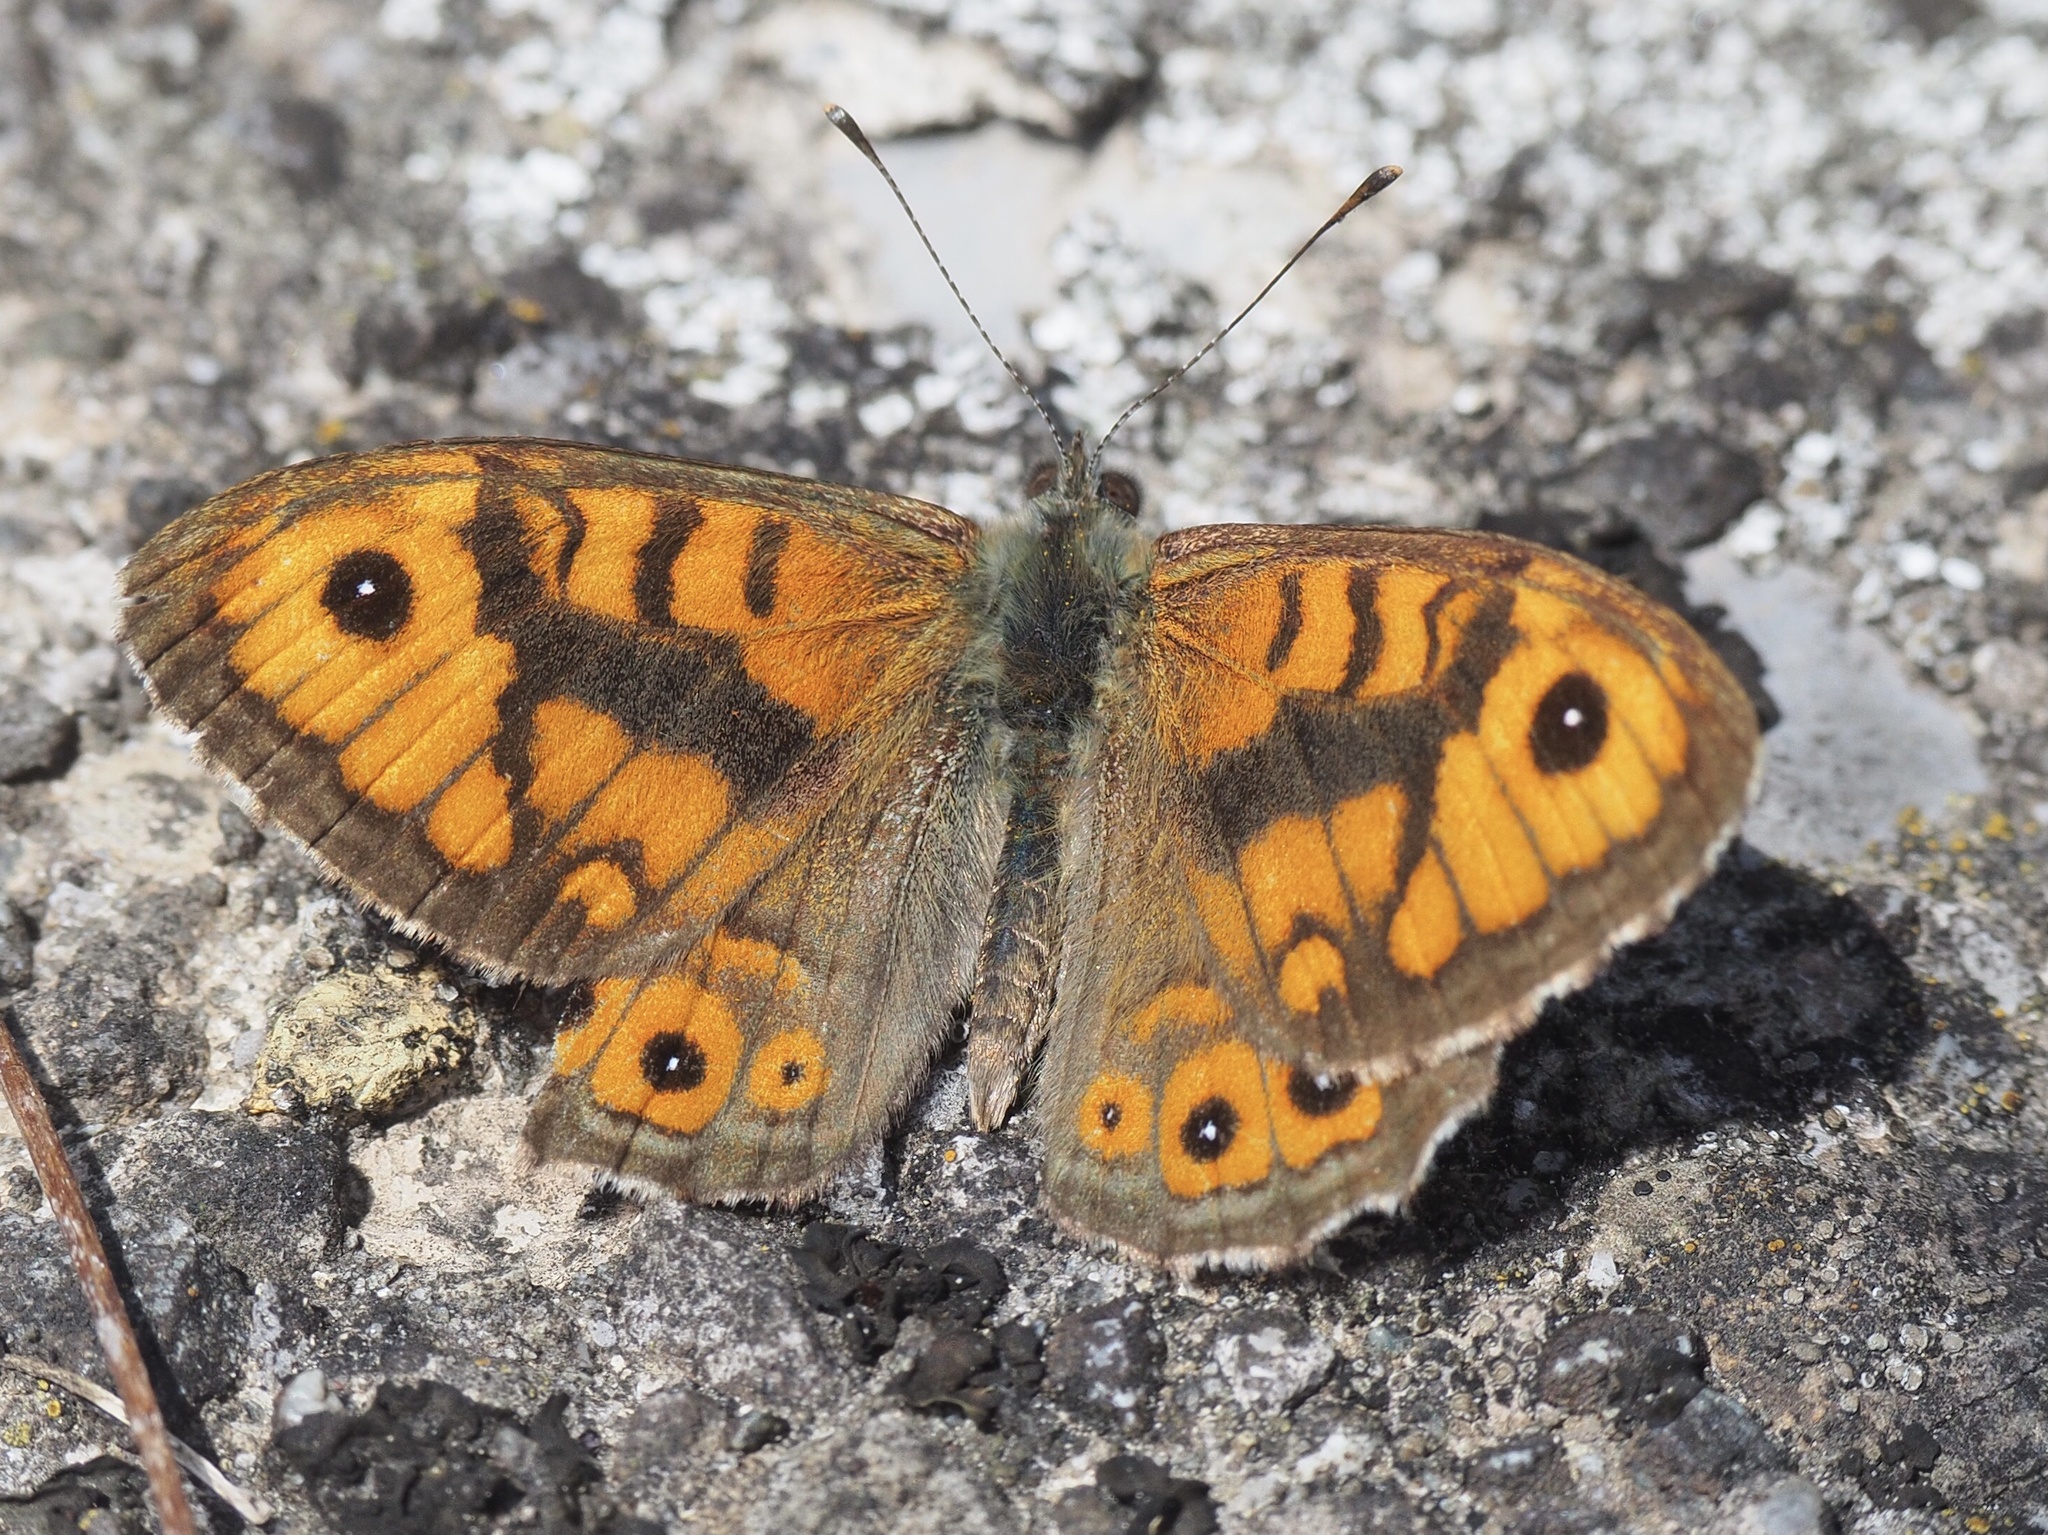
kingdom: Animalia
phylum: Arthropoda
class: Insecta
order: Lepidoptera
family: Nymphalidae
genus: Pararge
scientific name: Pararge Lasiommata megera
